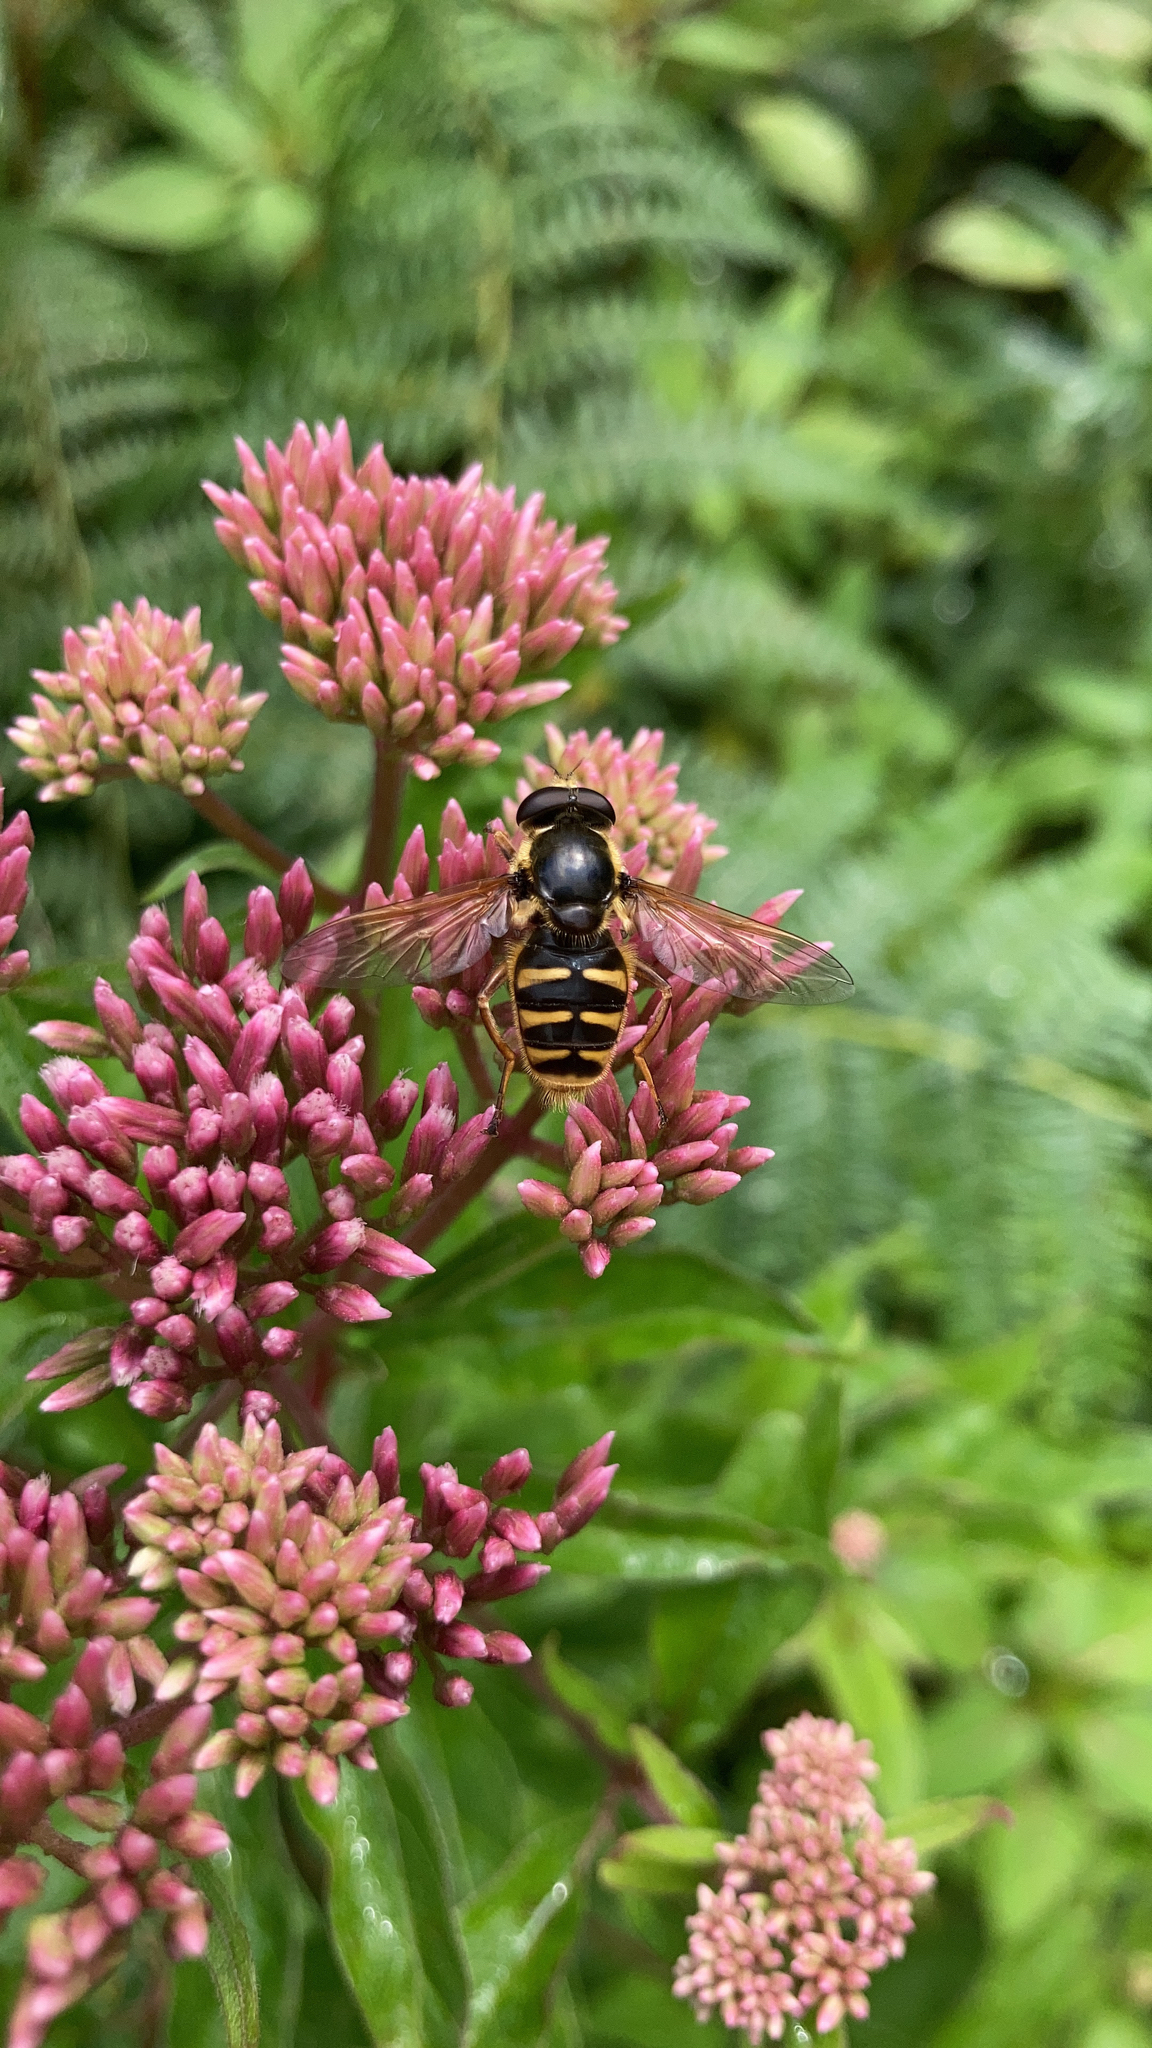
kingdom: Animalia
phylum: Arthropoda
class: Insecta
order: Diptera
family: Syrphidae
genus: Sericomyia
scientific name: Sericomyia silentis
